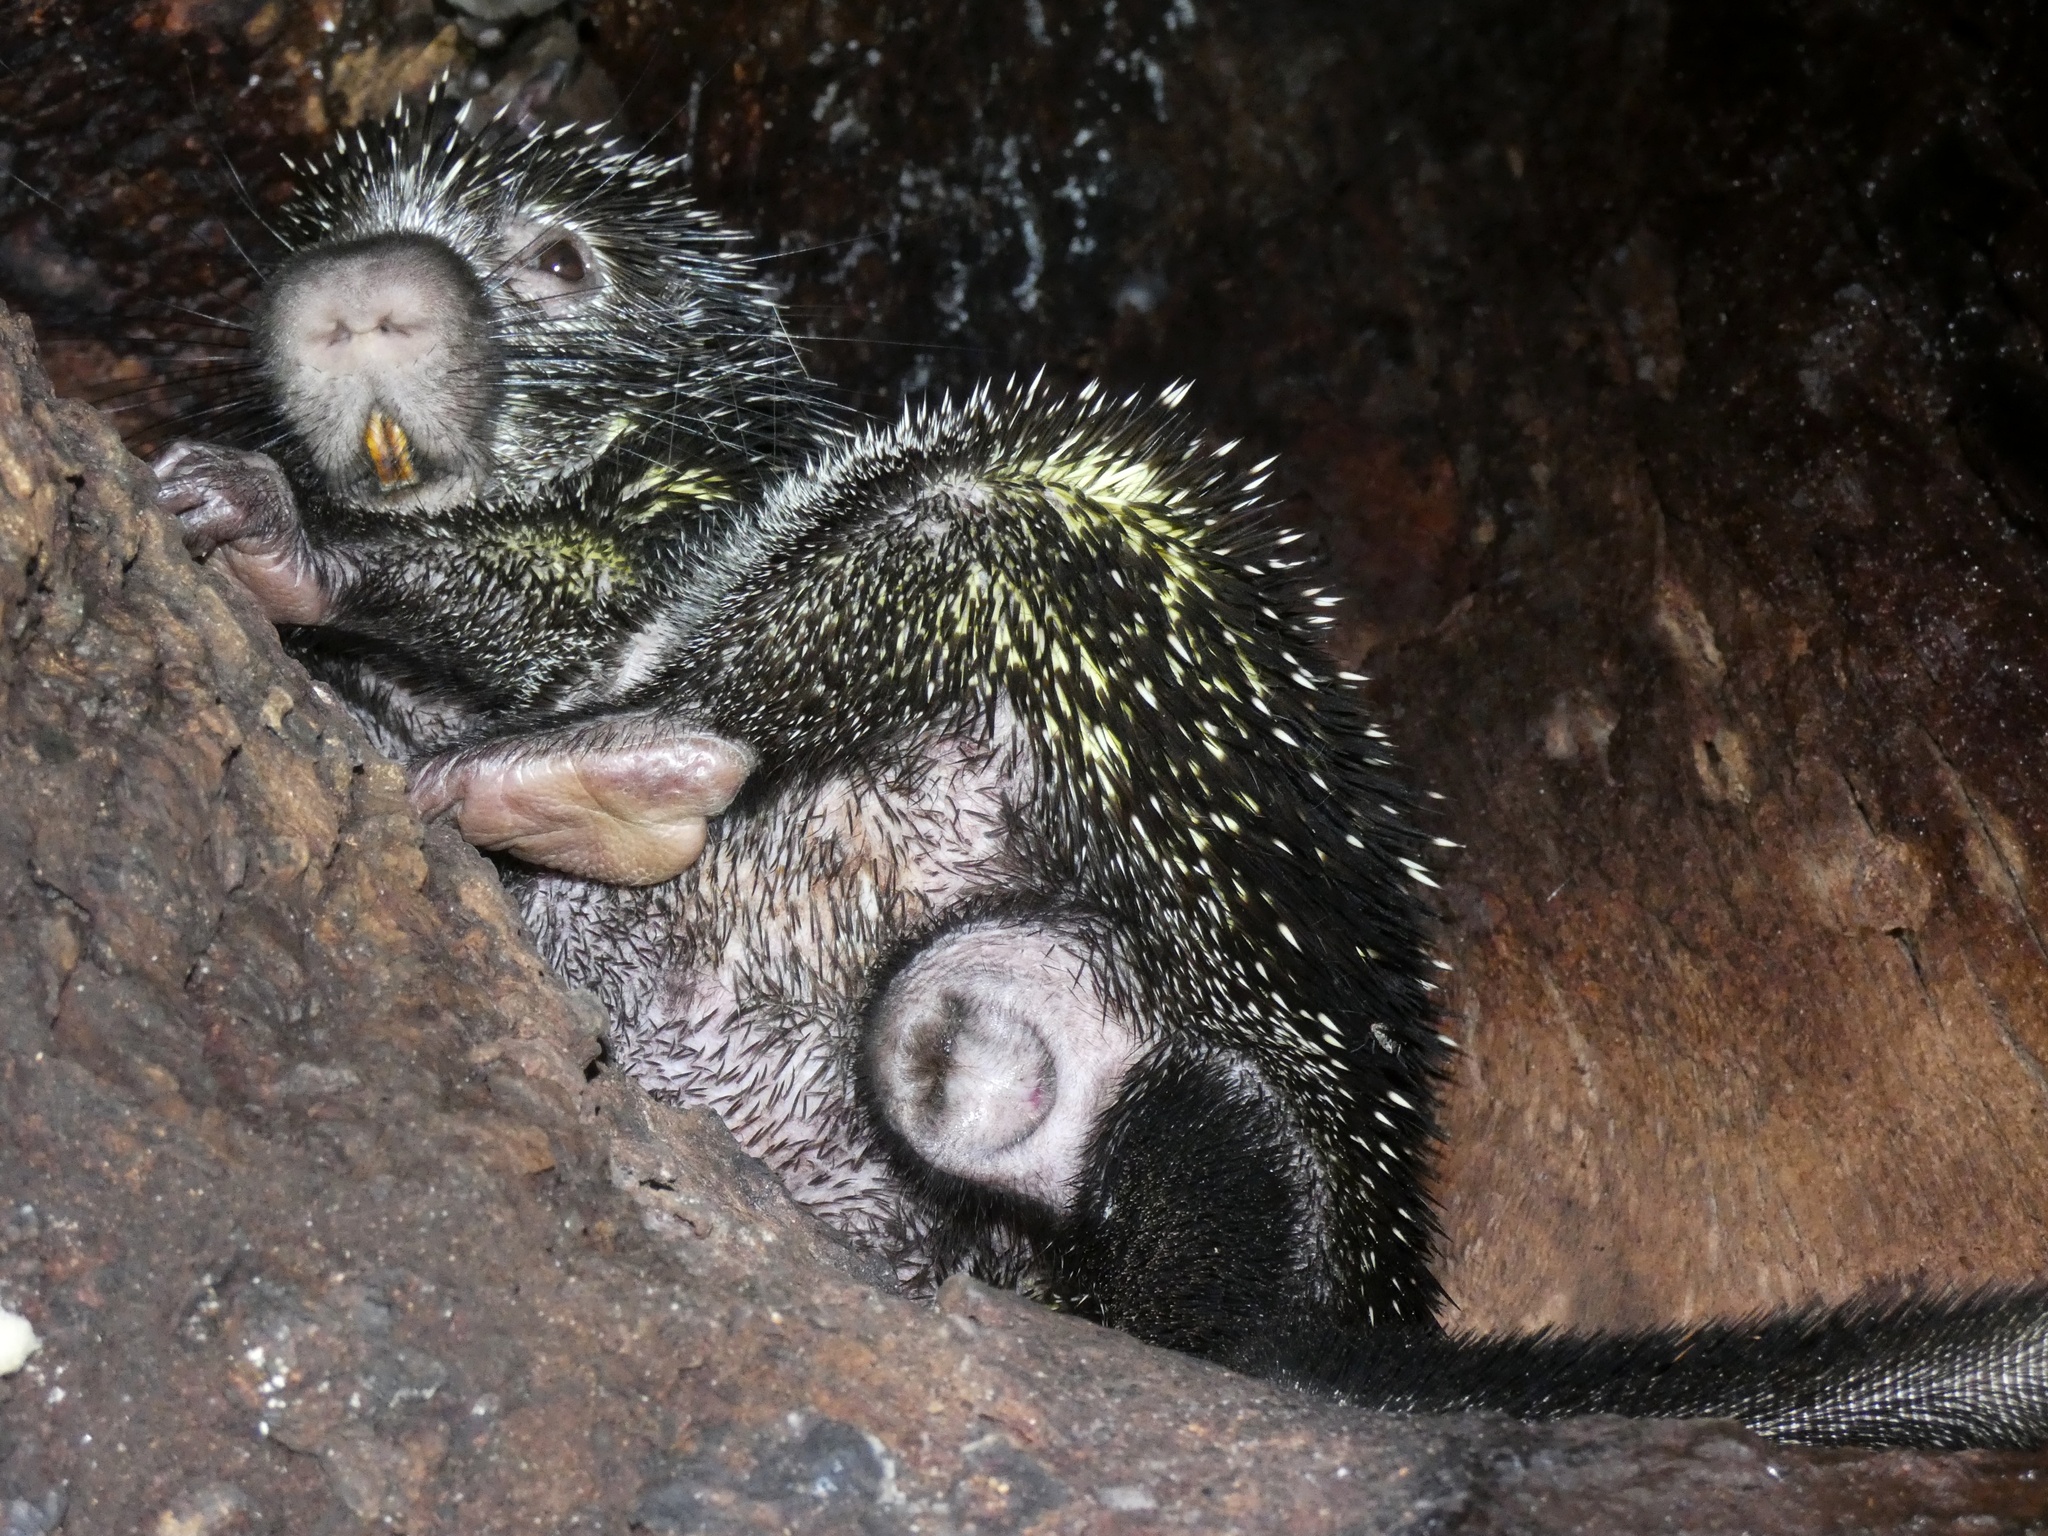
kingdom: Animalia
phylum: Chordata
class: Mammalia
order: Rodentia
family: Erethizontidae
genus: Coendou
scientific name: Coendou quichua
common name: Quichua porcupine
